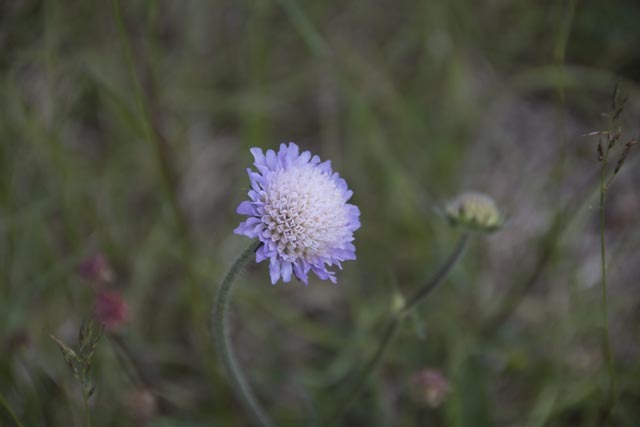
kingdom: Plantae
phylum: Tracheophyta
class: Magnoliopsida
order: Dipsacales
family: Caprifoliaceae
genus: Knautia
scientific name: Knautia arvensis
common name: Field scabiosa
